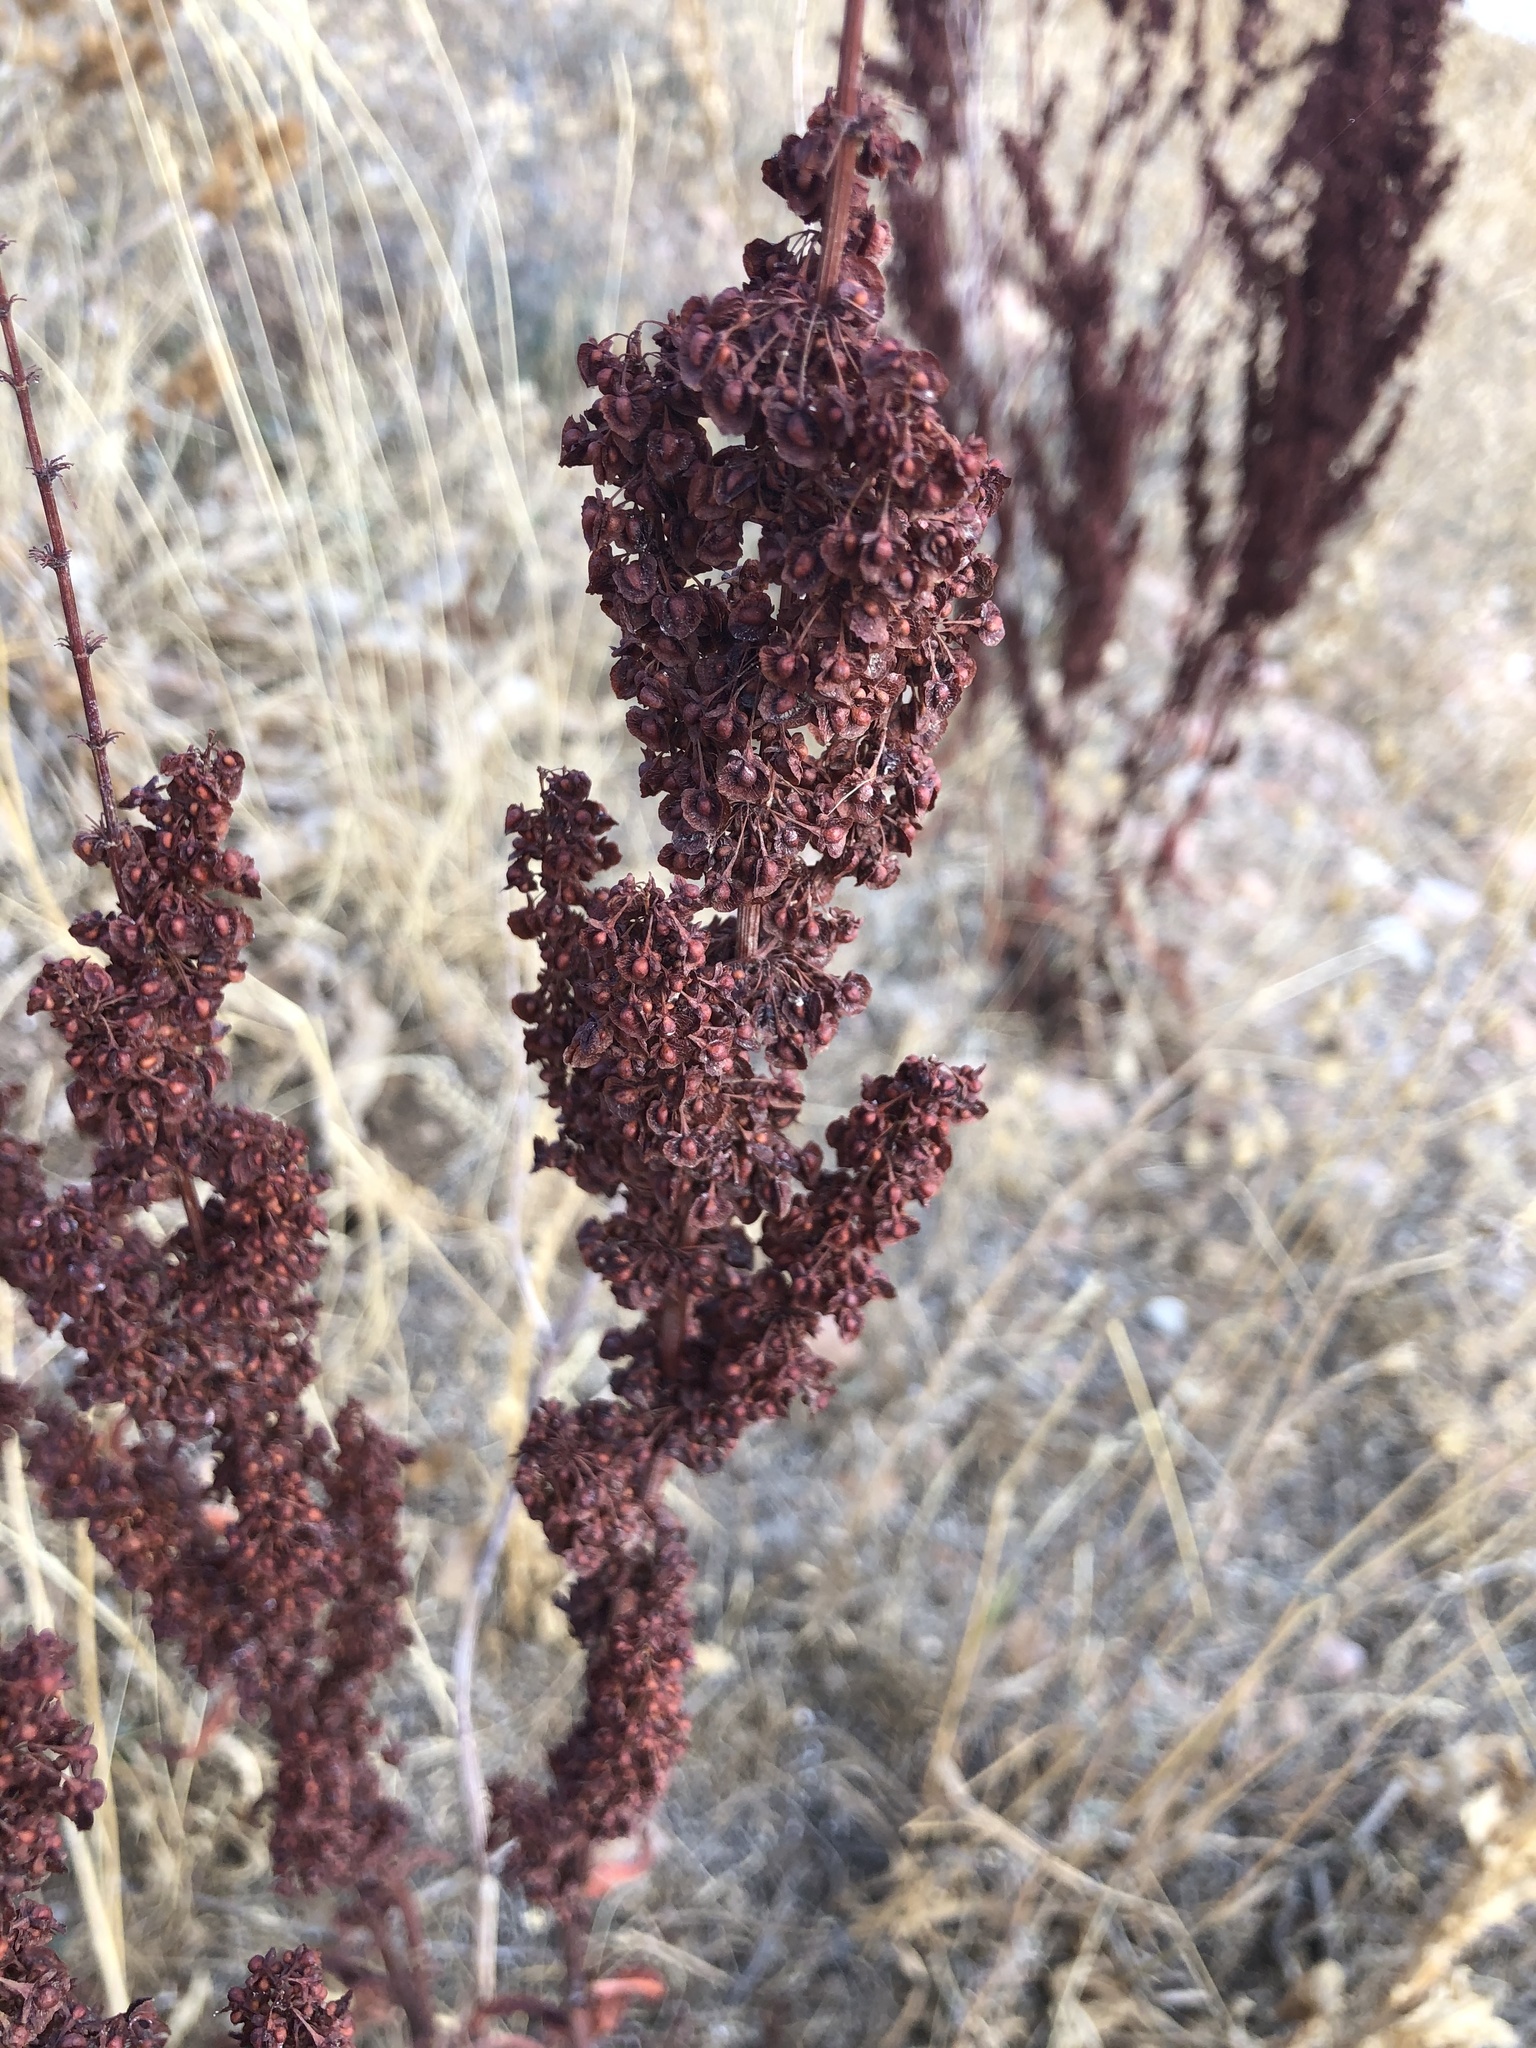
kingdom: Plantae
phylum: Tracheophyta
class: Magnoliopsida
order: Caryophyllales
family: Polygonaceae
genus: Rumex
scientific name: Rumex crispus
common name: Curled dock
